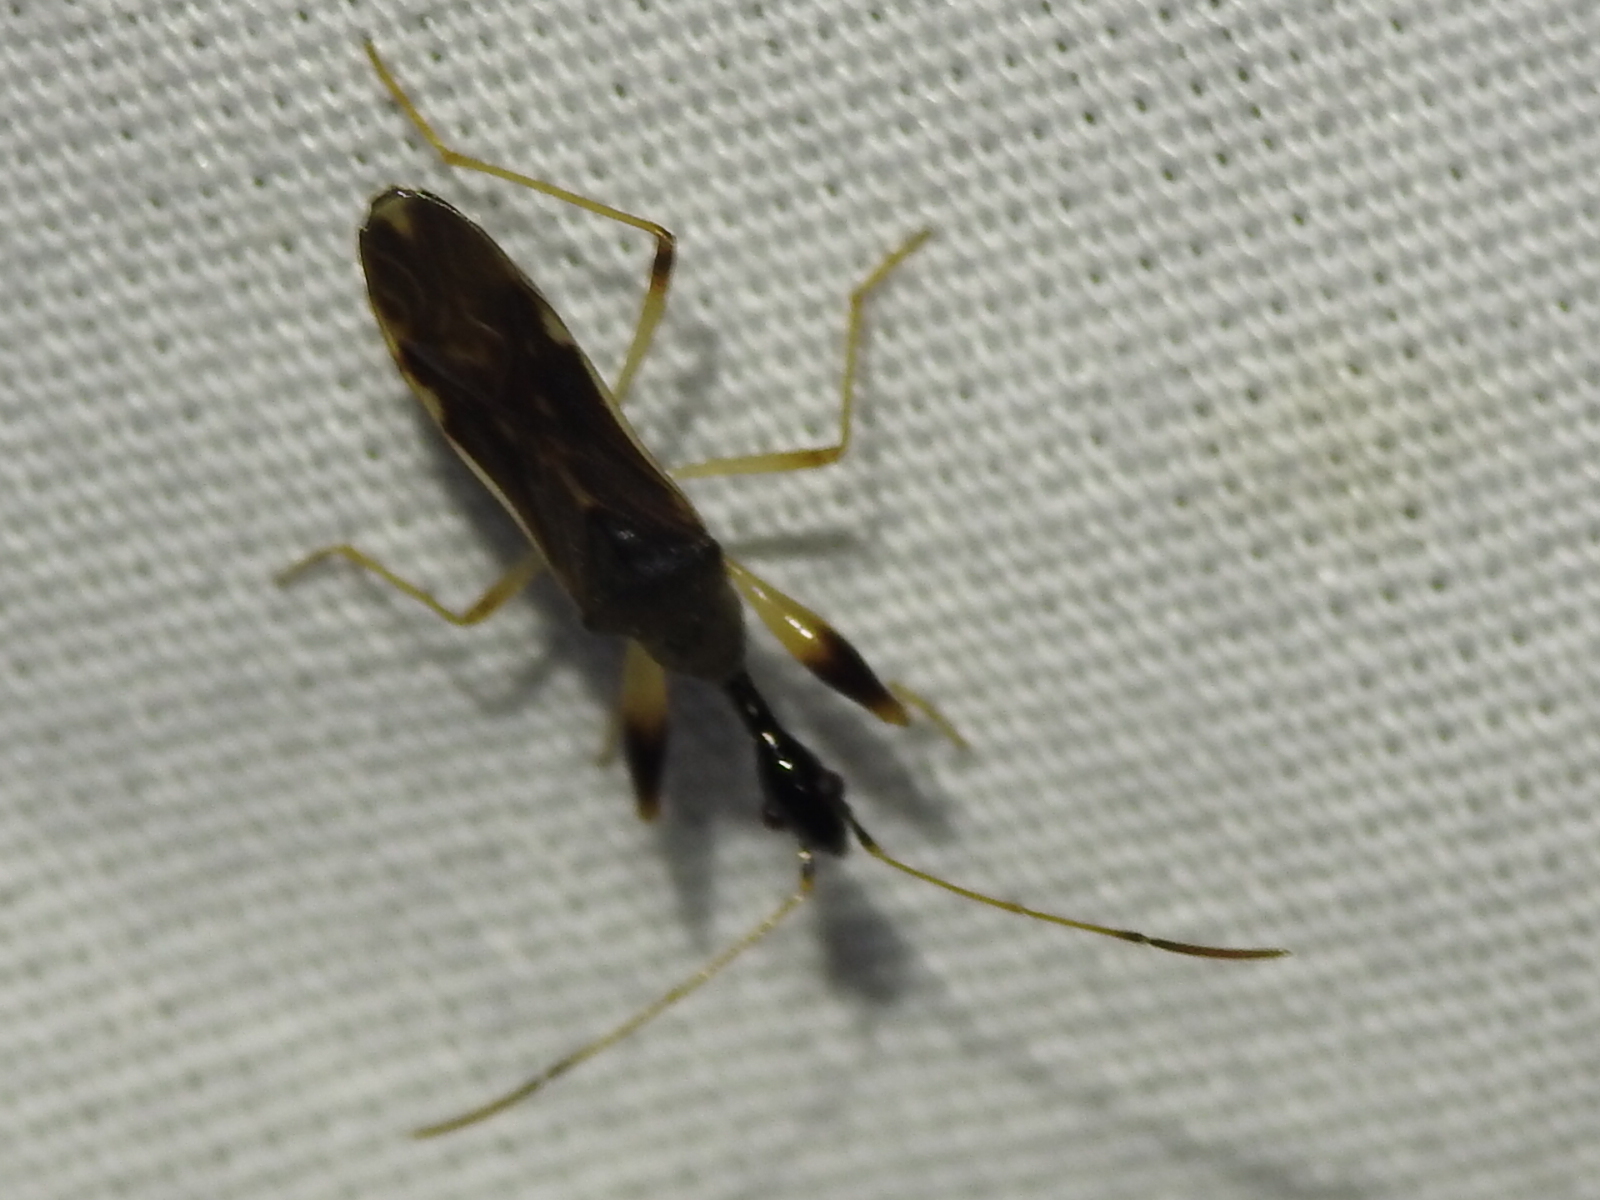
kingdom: Animalia
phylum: Arthropoda
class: Insecta
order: Hemiptera
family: Rhyparochromidae
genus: Myodocha
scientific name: Myodocha serripes
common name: Long-necked seed bug
